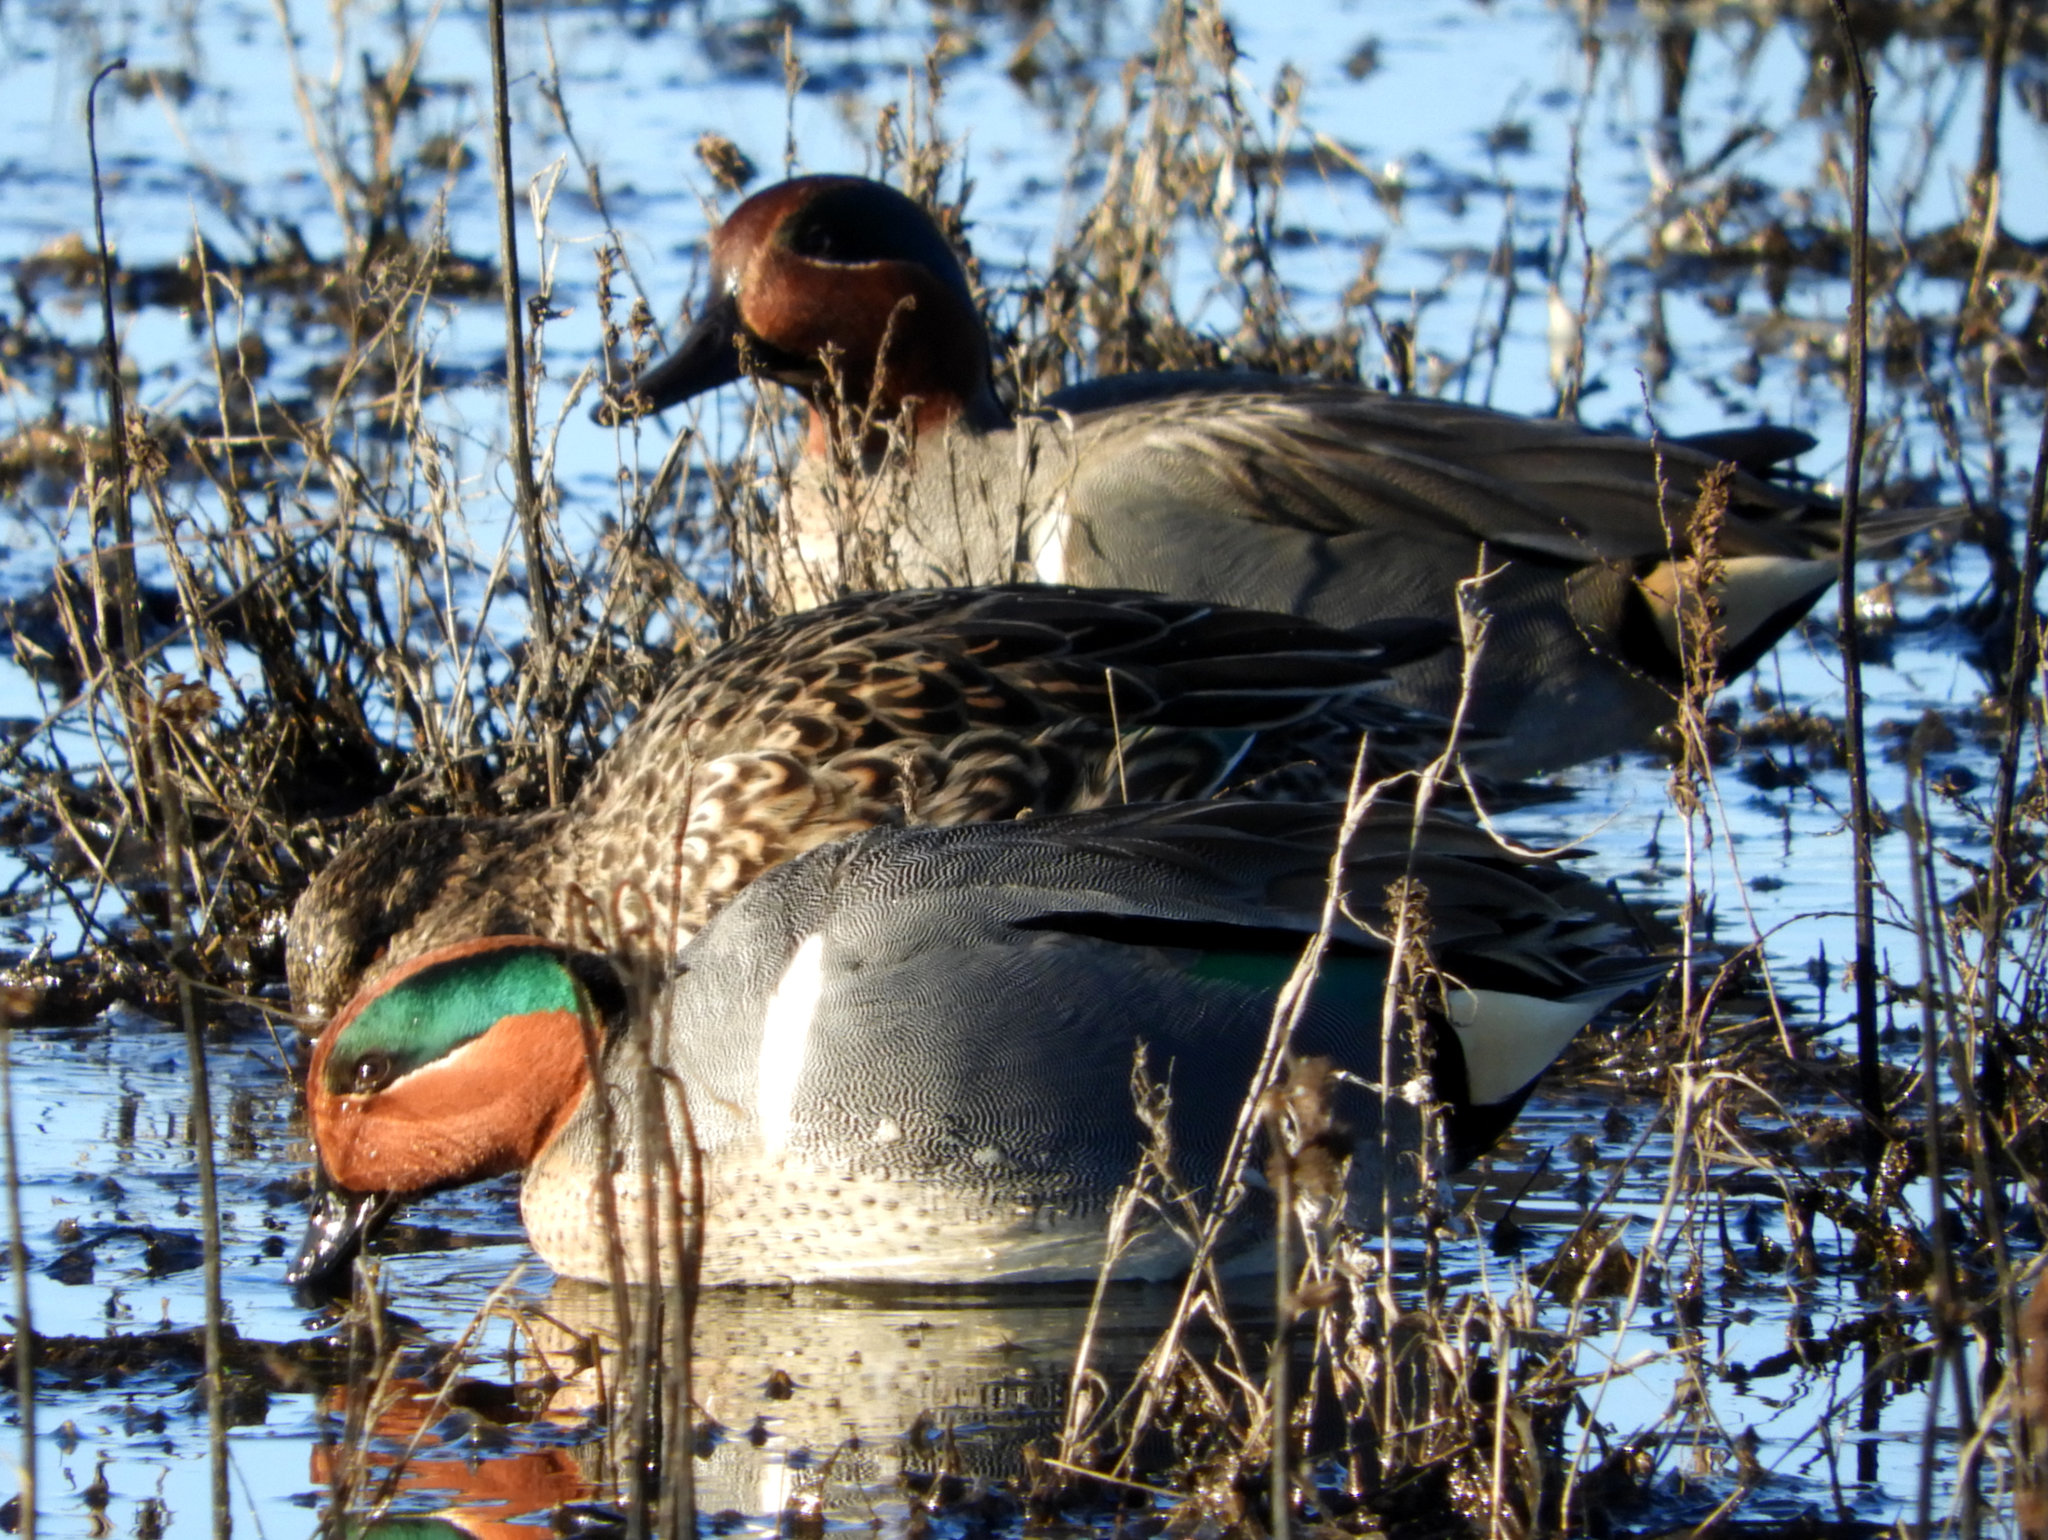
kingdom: Animalia
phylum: Chordata
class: Aves
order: Anseriformes
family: Anatidae
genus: Anas
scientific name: Anas acuta
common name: Northern pintail
